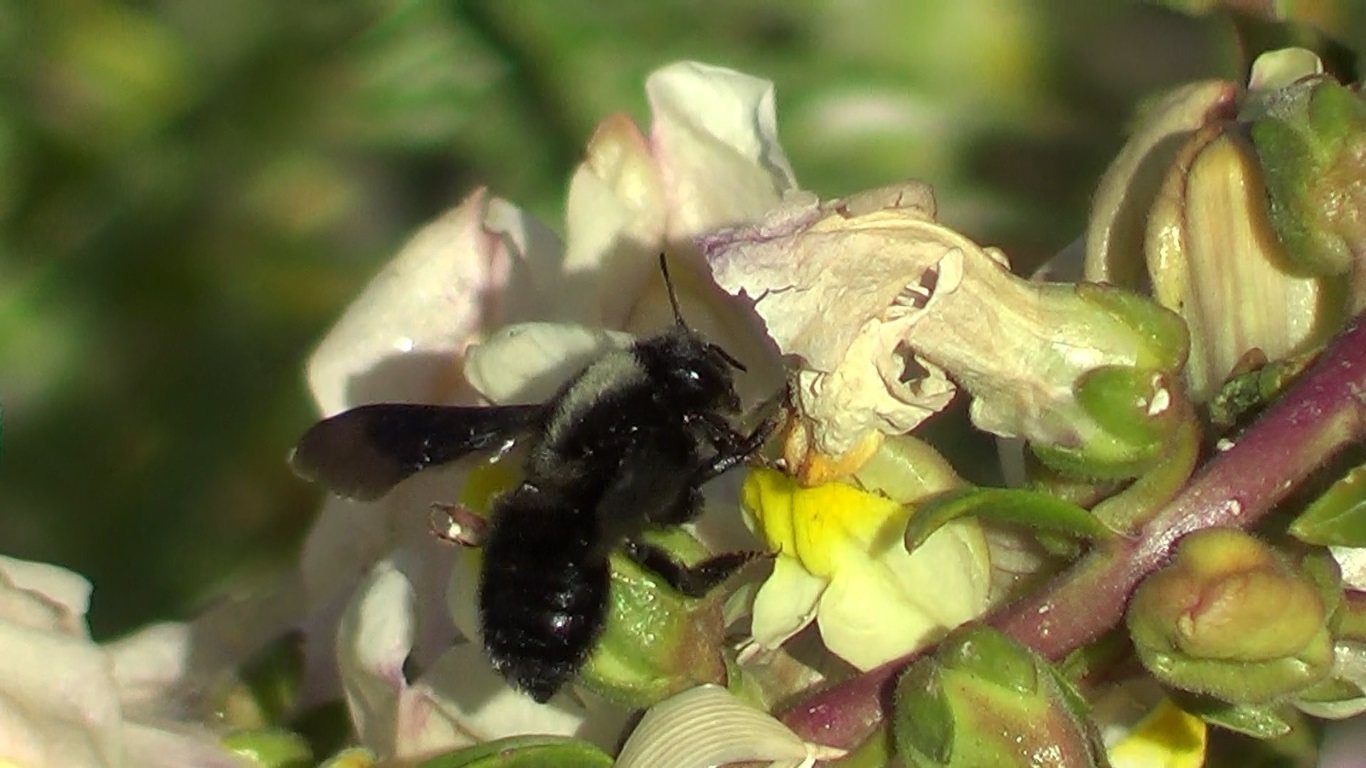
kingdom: Animalia
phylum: Arthropoda
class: Insecta
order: Hymenoptera
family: Megachilidae
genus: Megachile
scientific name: Megachile parietina
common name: Black mud bee
